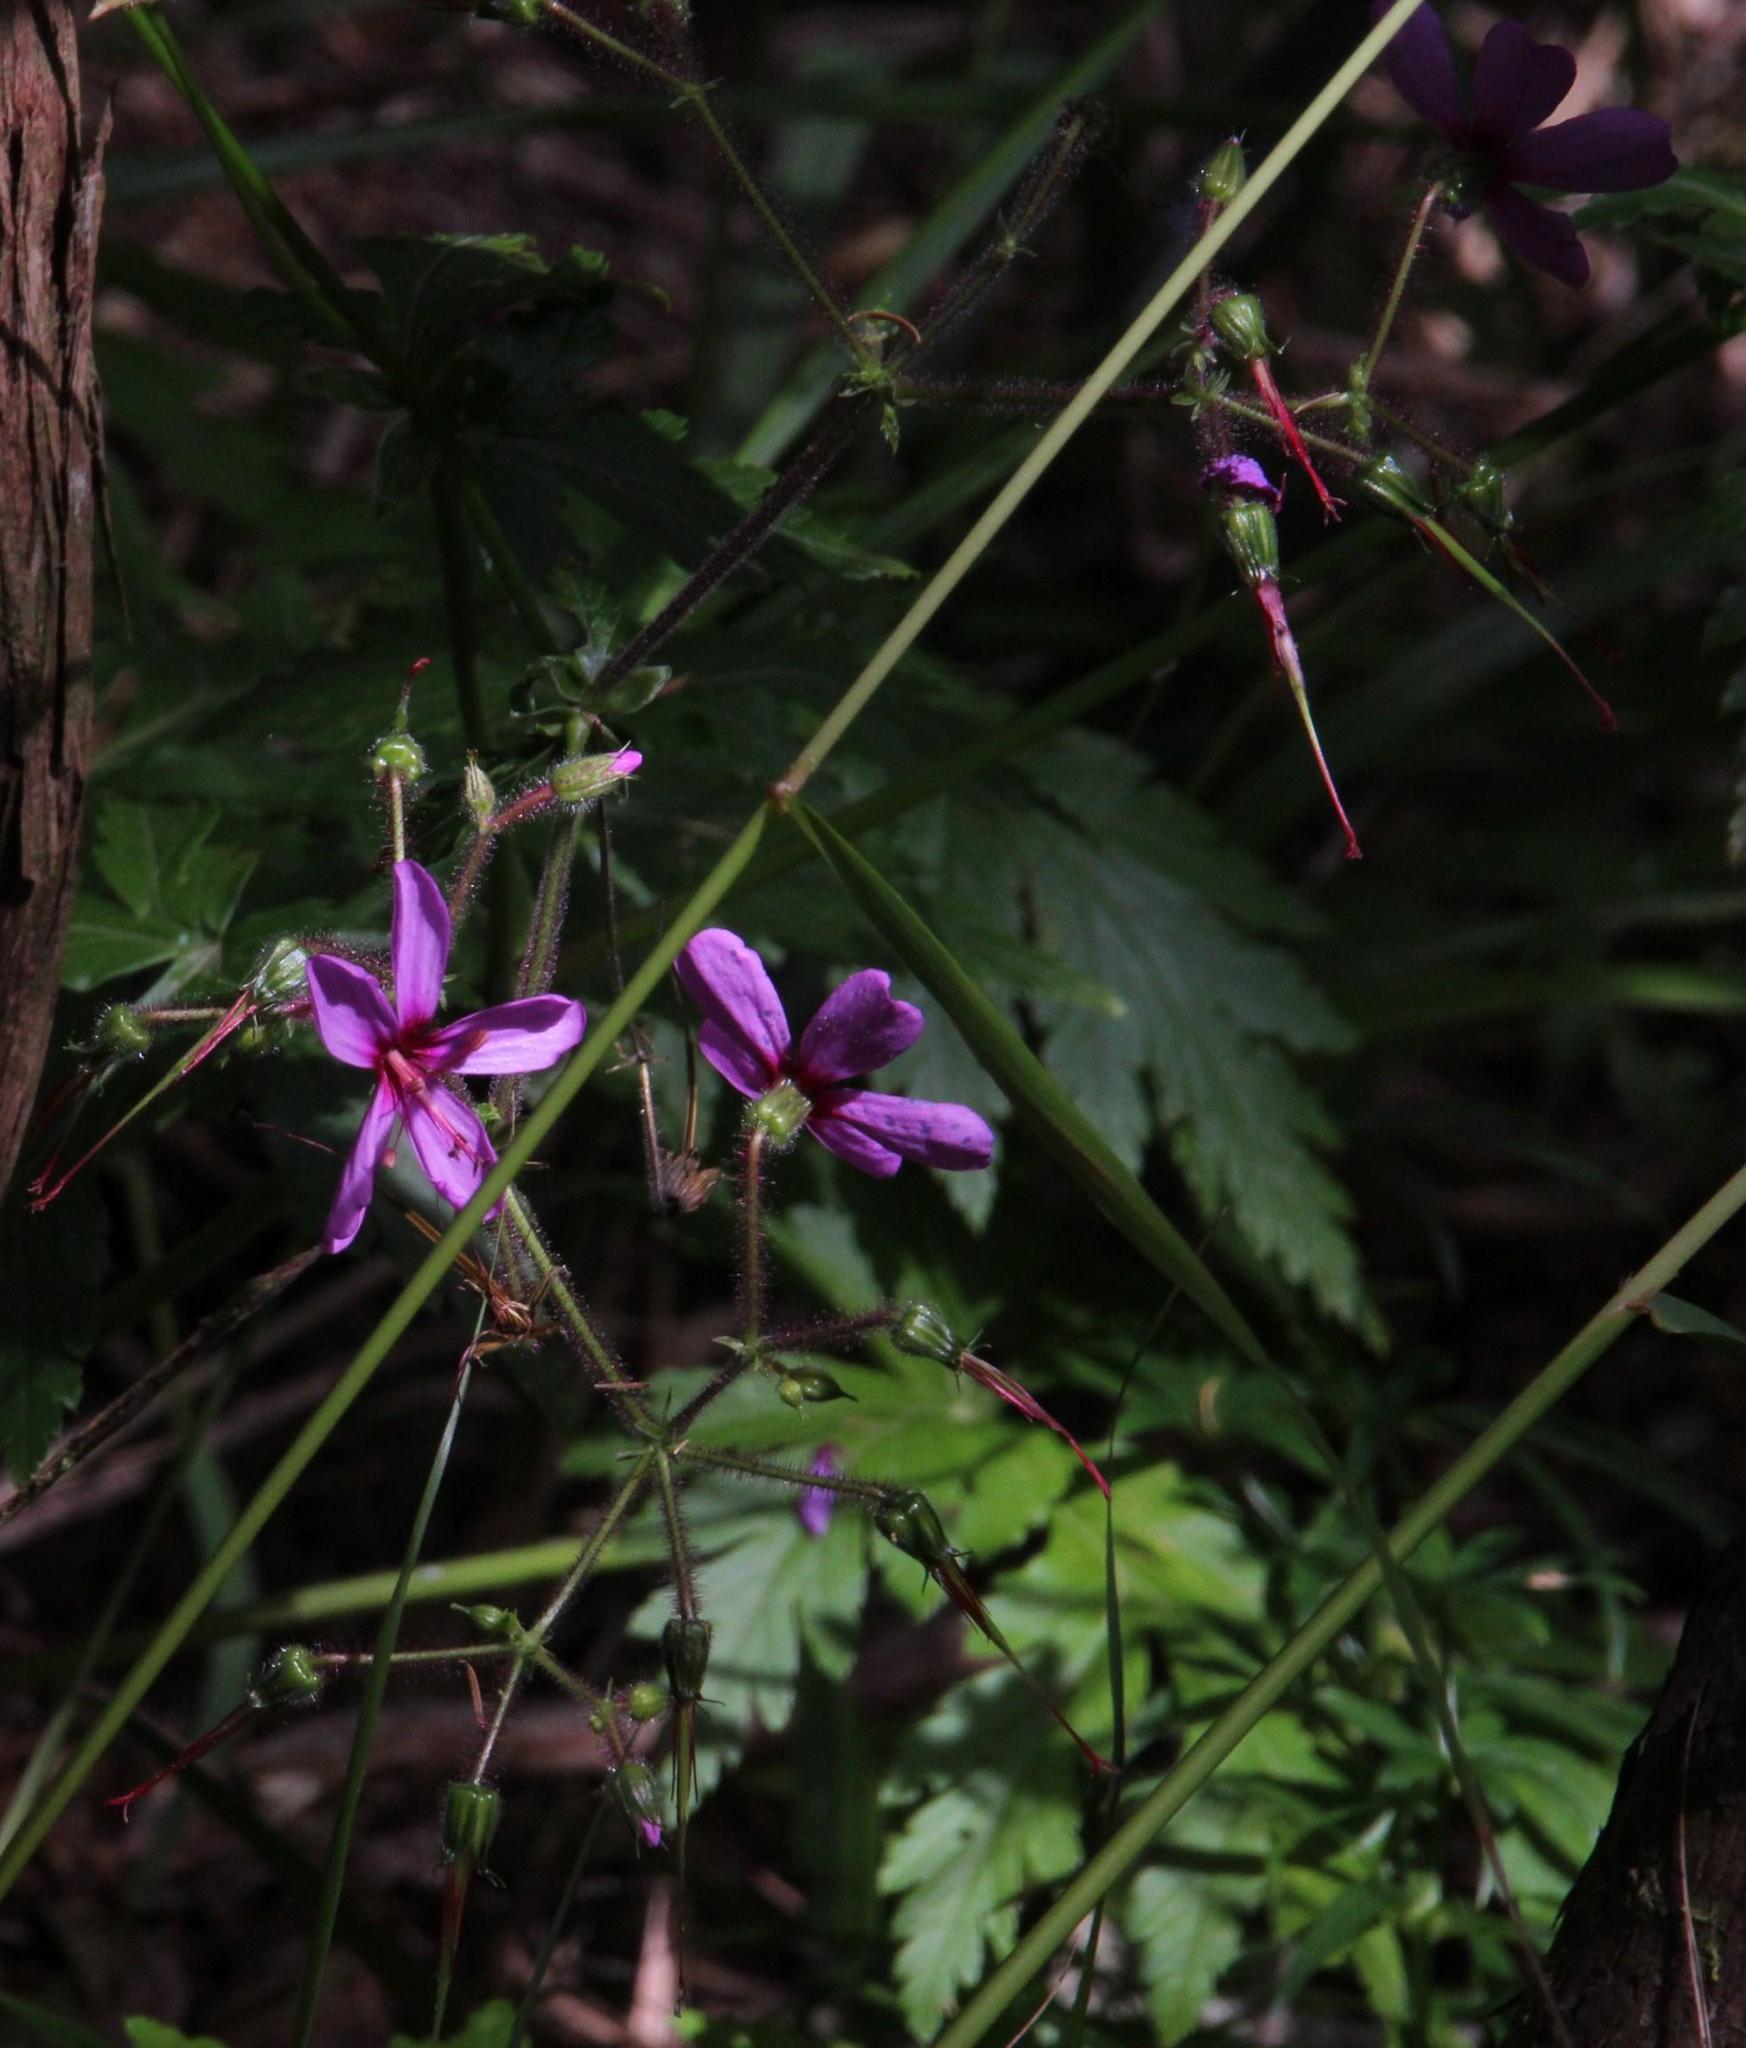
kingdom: Plantae
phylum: Tracheophyta
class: Magnoliopsida
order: Geraniales
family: Geraniaceae
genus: Geranium
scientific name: Geranium palmatum
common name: Canary island geranium
